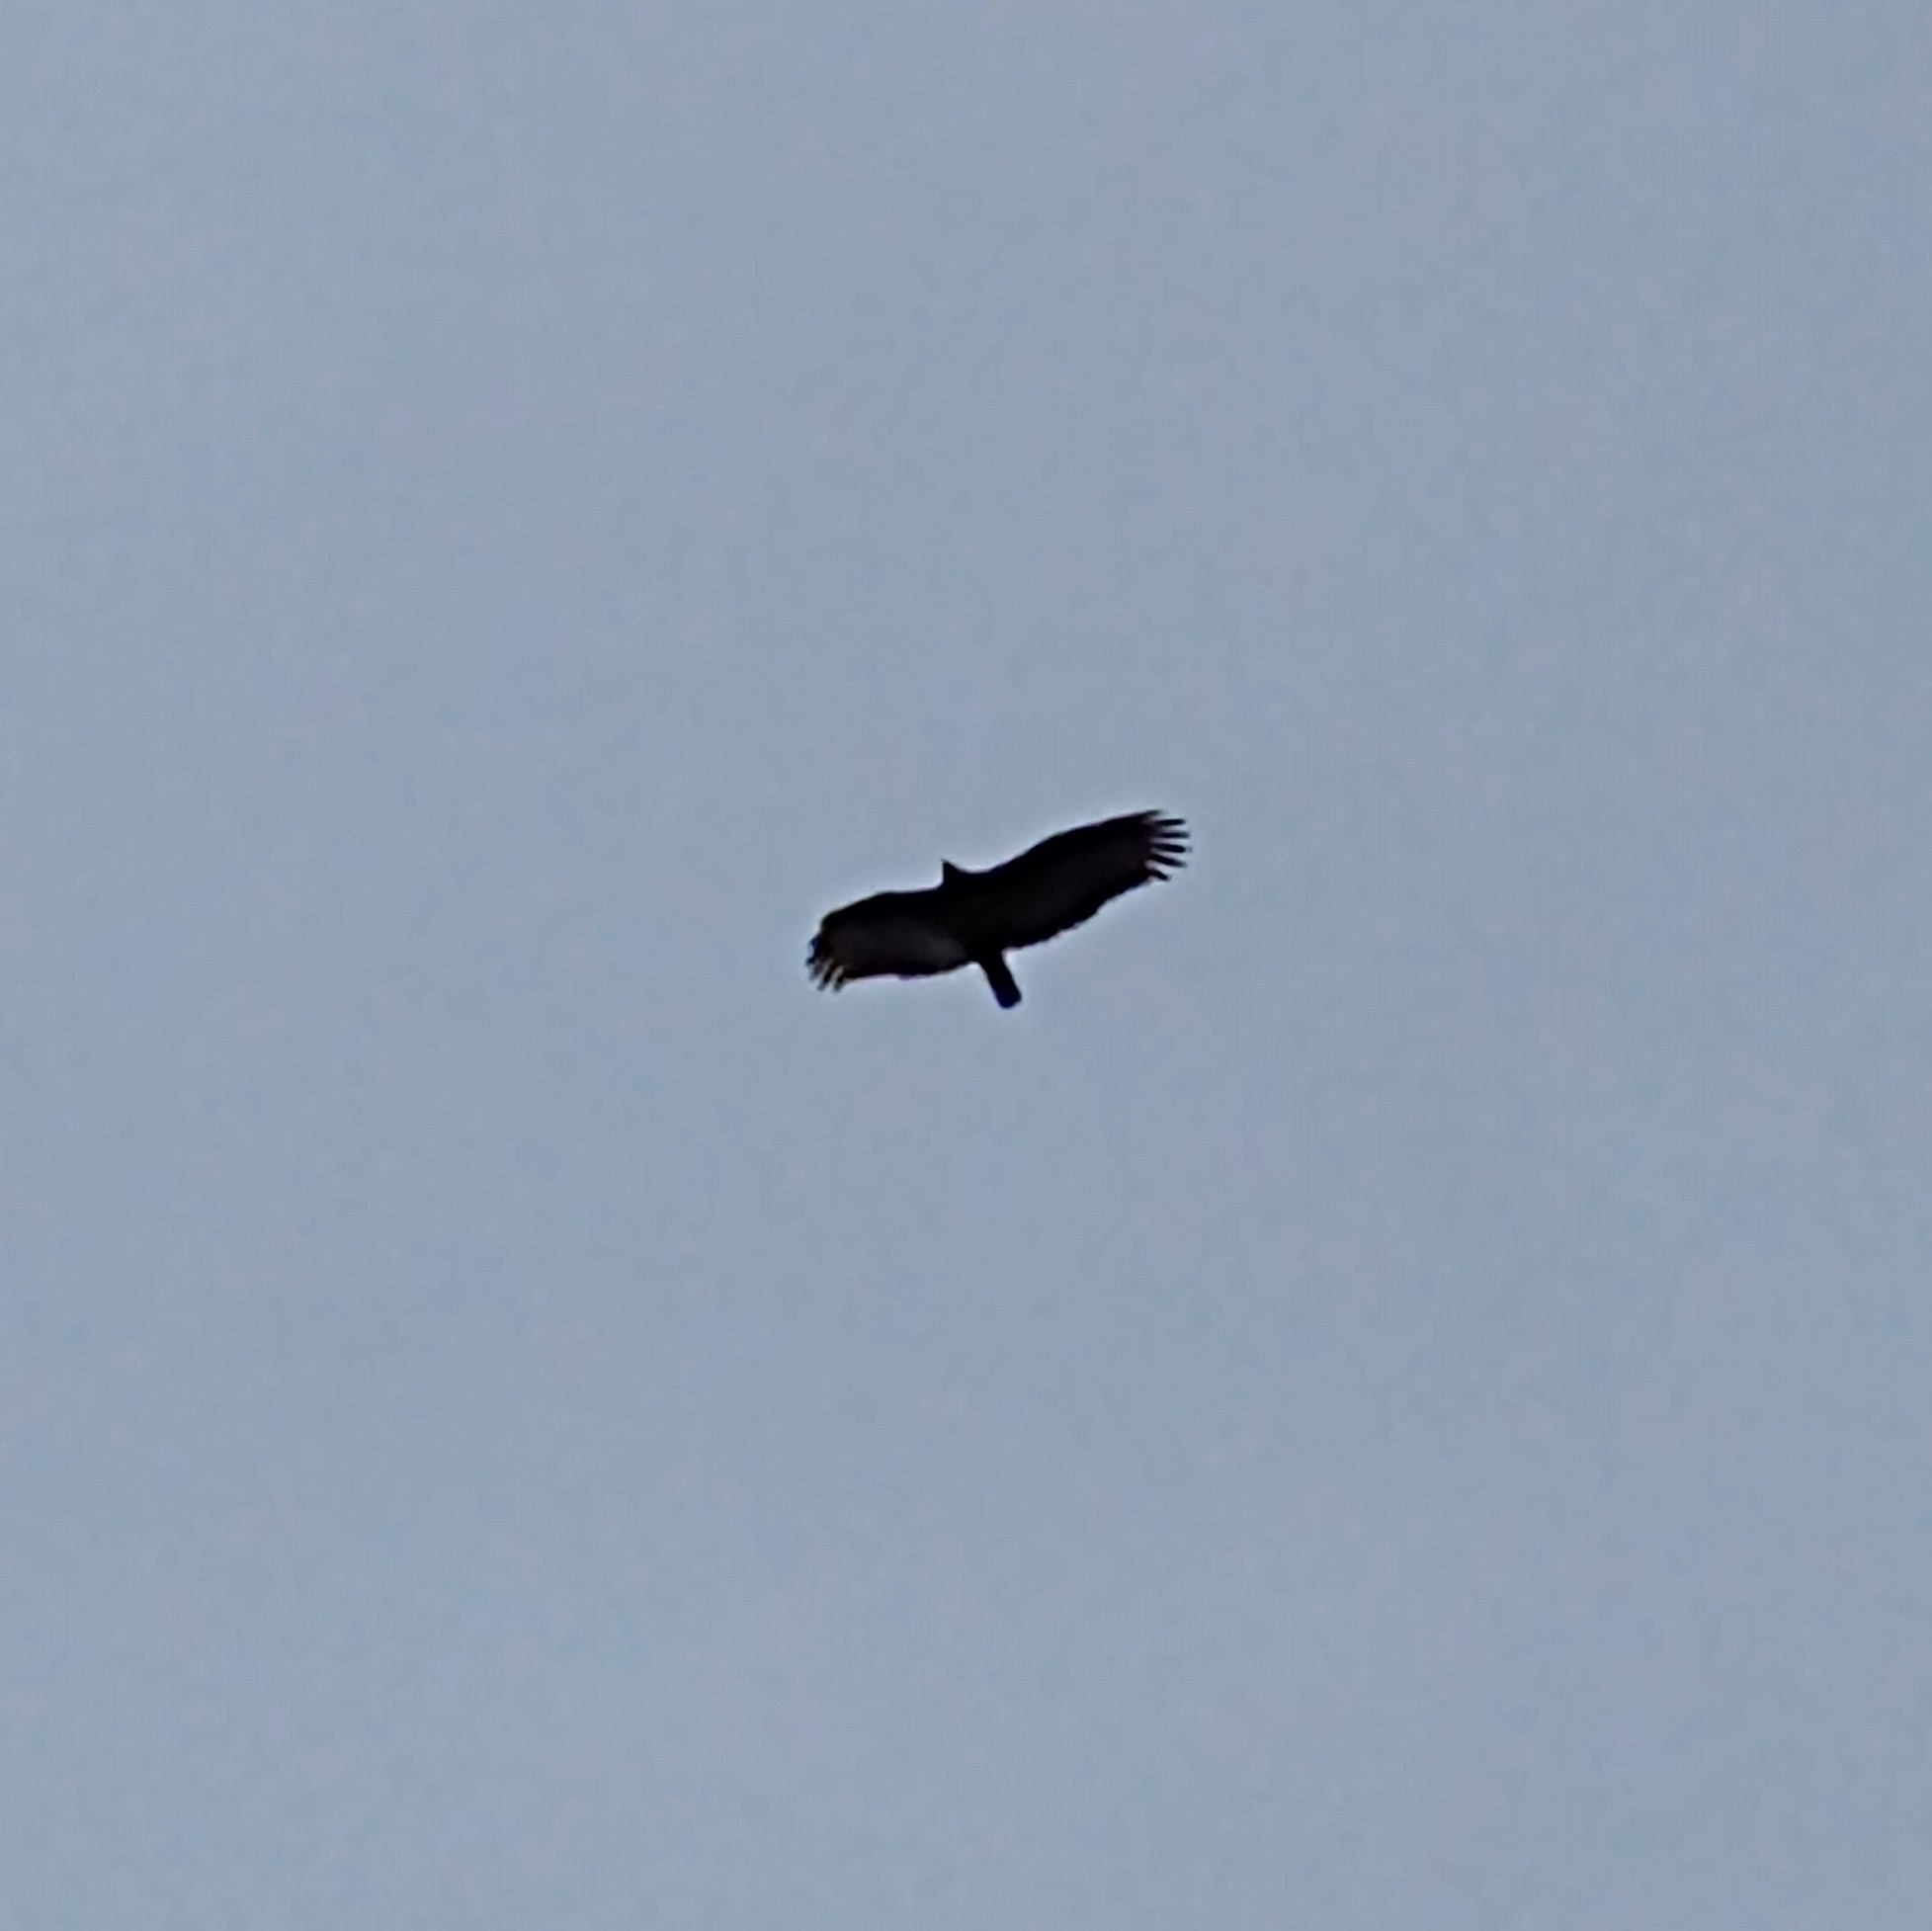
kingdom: Animalia
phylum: Chordata
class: Aves
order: Accipitriformes
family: Cathartidae
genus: Cathartes
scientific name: Cathartes aura
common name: Turkey vulture
